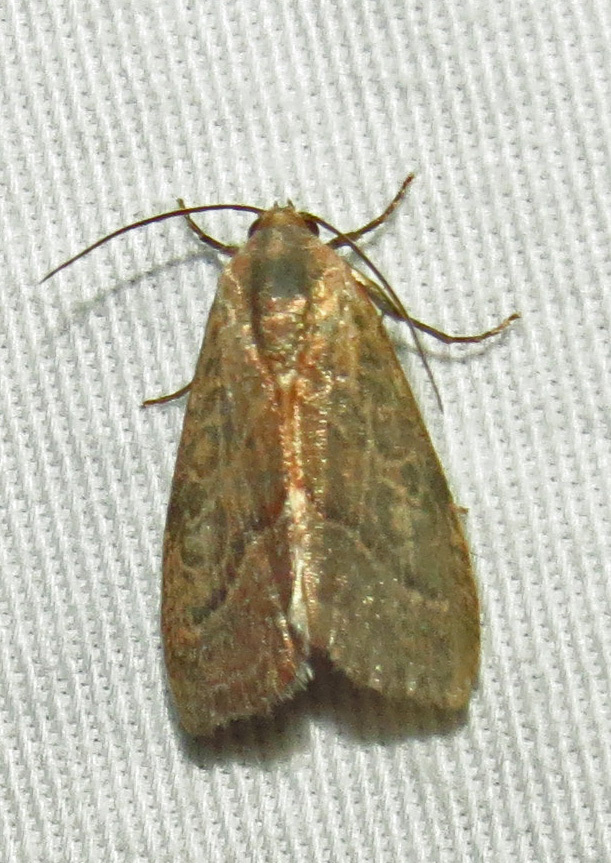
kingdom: Animalia
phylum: Arthropoda
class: Insecta
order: Lepidoptera
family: Noctuidae
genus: Galgula
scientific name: Galgula partita
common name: Wedgeling
